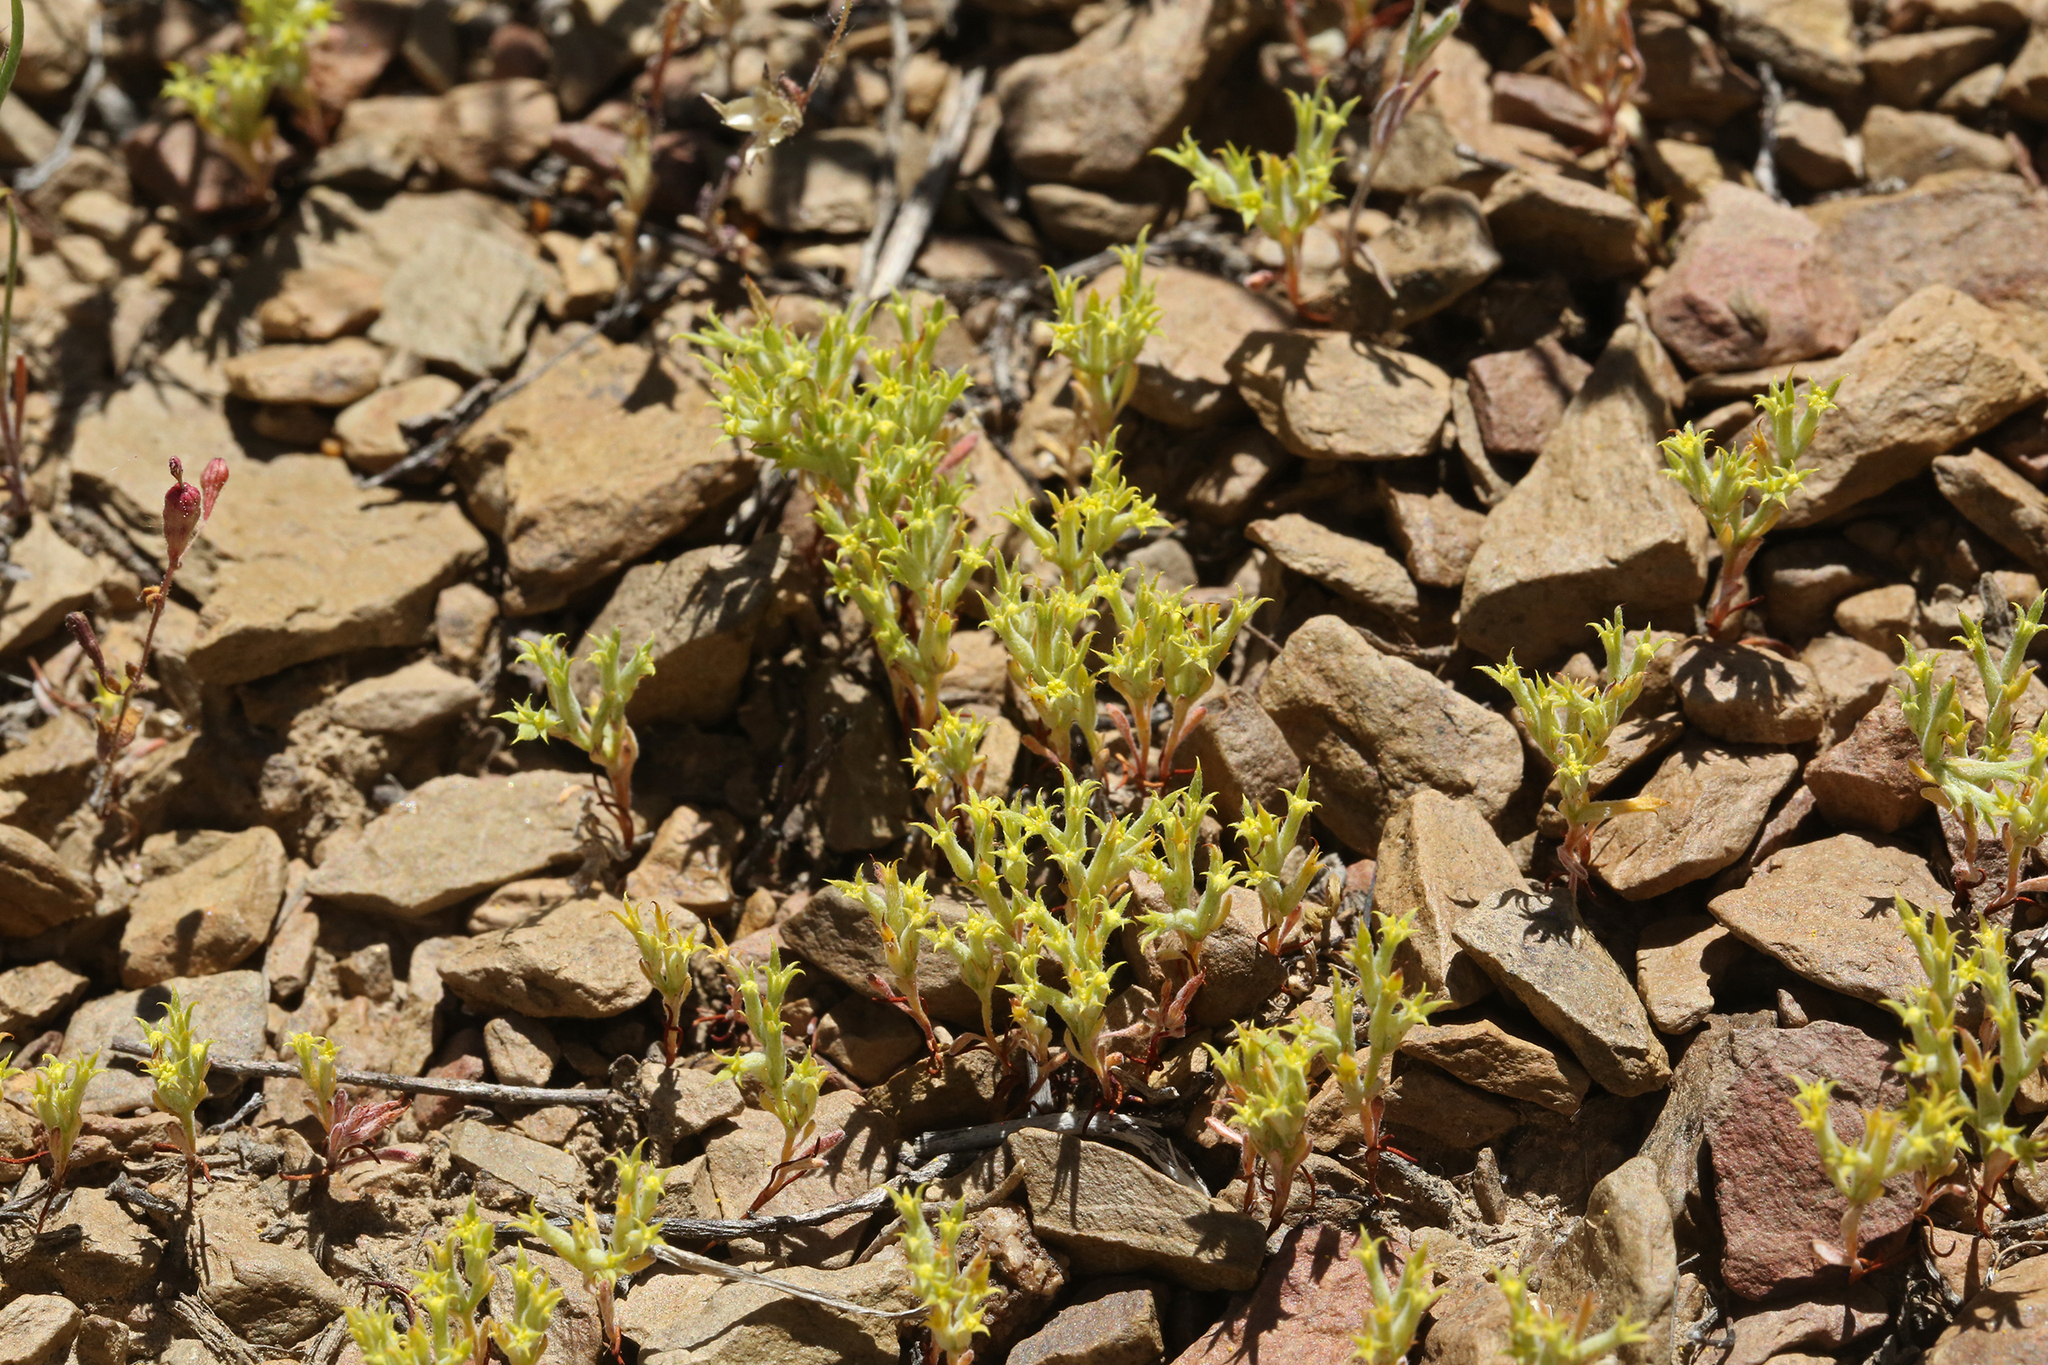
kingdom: Plantae
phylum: Tracheophyta
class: Magnoliopsida
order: Caryophyllales
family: Polygonaceae
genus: Chorizanthe
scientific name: Chorizanthe watsonii
